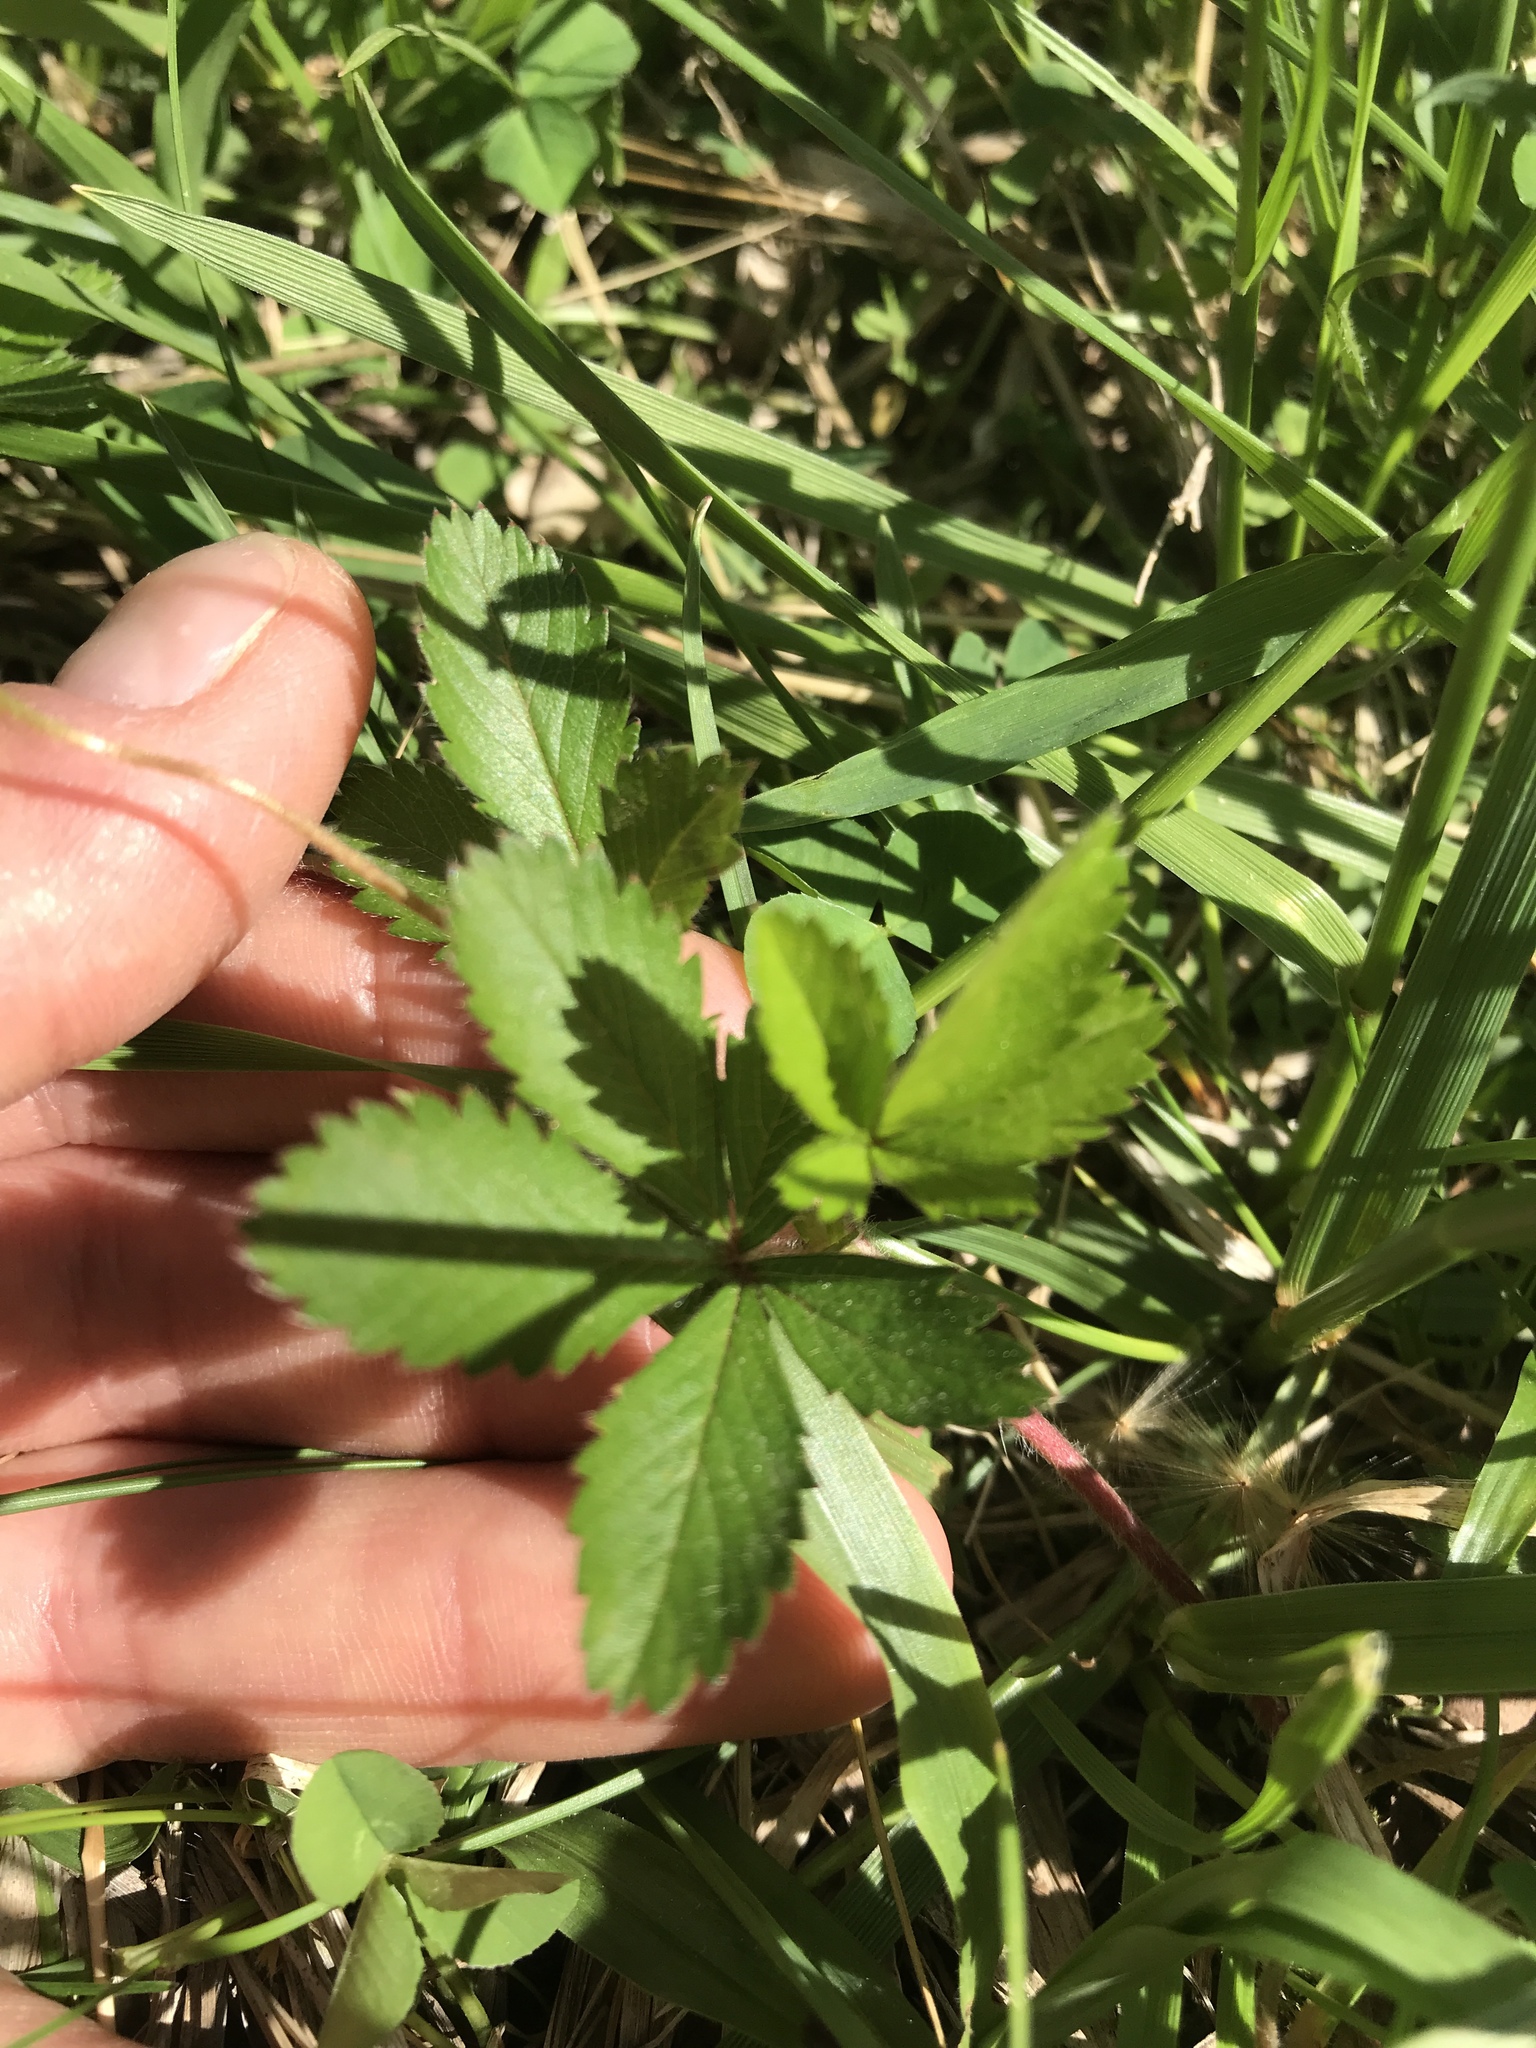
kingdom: Plantae
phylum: Tracheophyta
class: Magnoliopsida
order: Rosales
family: Rosaceae
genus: Potentilla
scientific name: Potentilla simplex
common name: Old field cinquefoil
